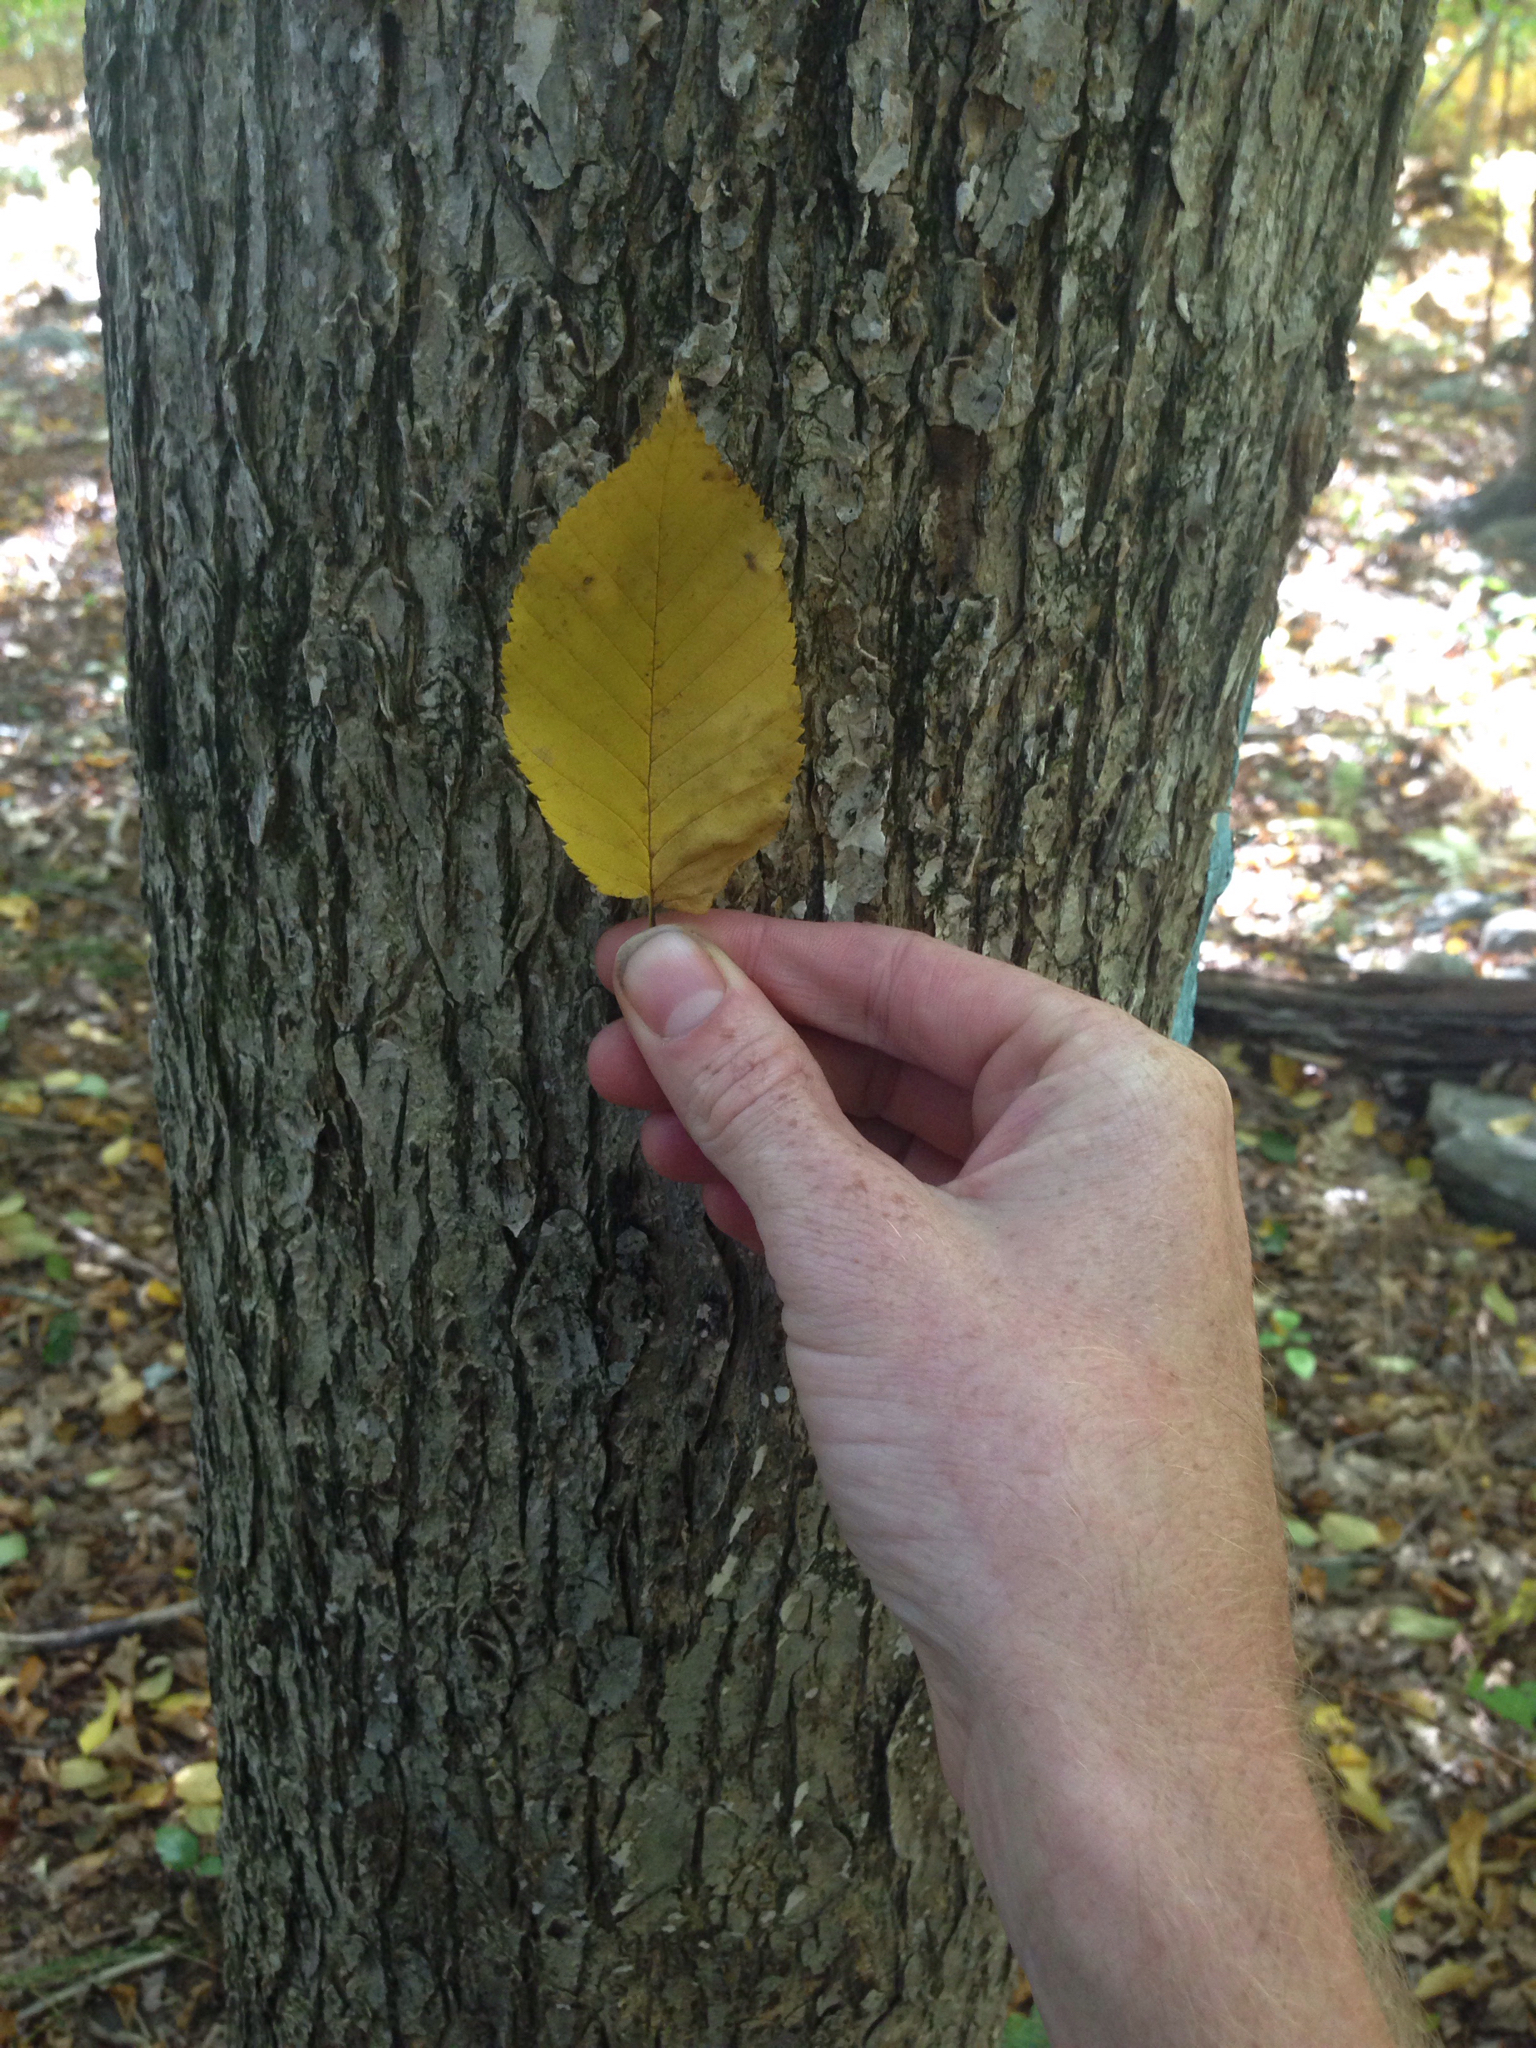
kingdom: Plantae
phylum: Tracheophyta
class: Magnoliopsida
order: Rosales
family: Ulmaceae
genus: Ulmus
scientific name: Ulmus americana
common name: American elm
